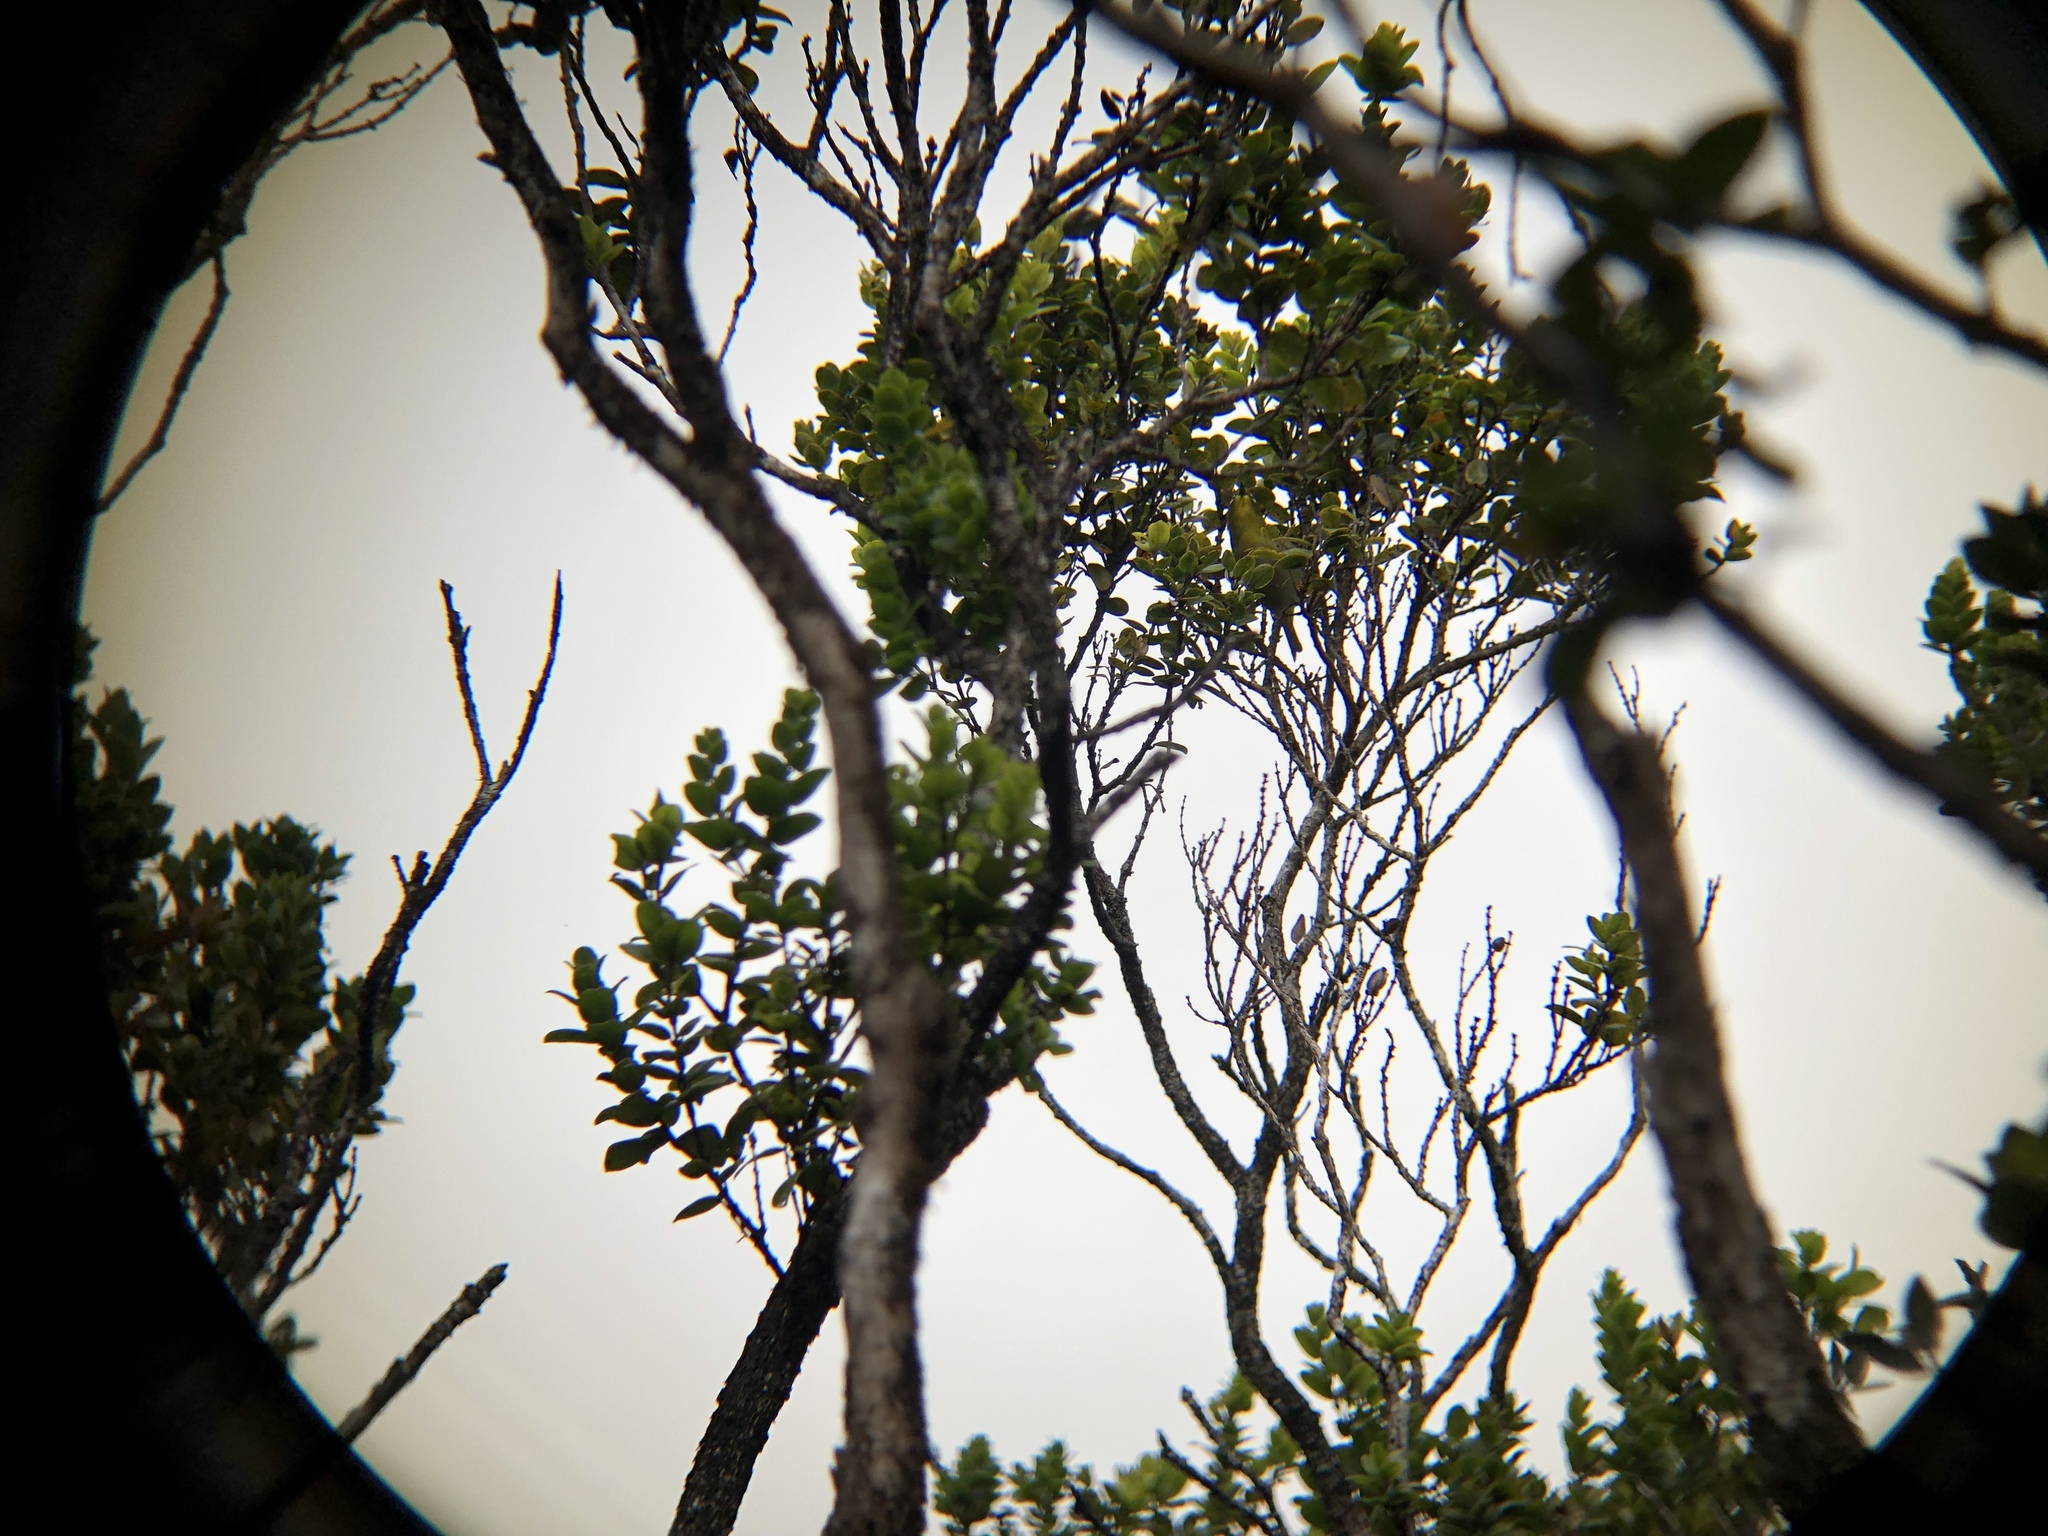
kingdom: Animalia
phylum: Chordata
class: Aves
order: Passeriformes
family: Zosteropidae
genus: Zosterops
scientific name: Zosterops japonicus
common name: Japanese white-eye
